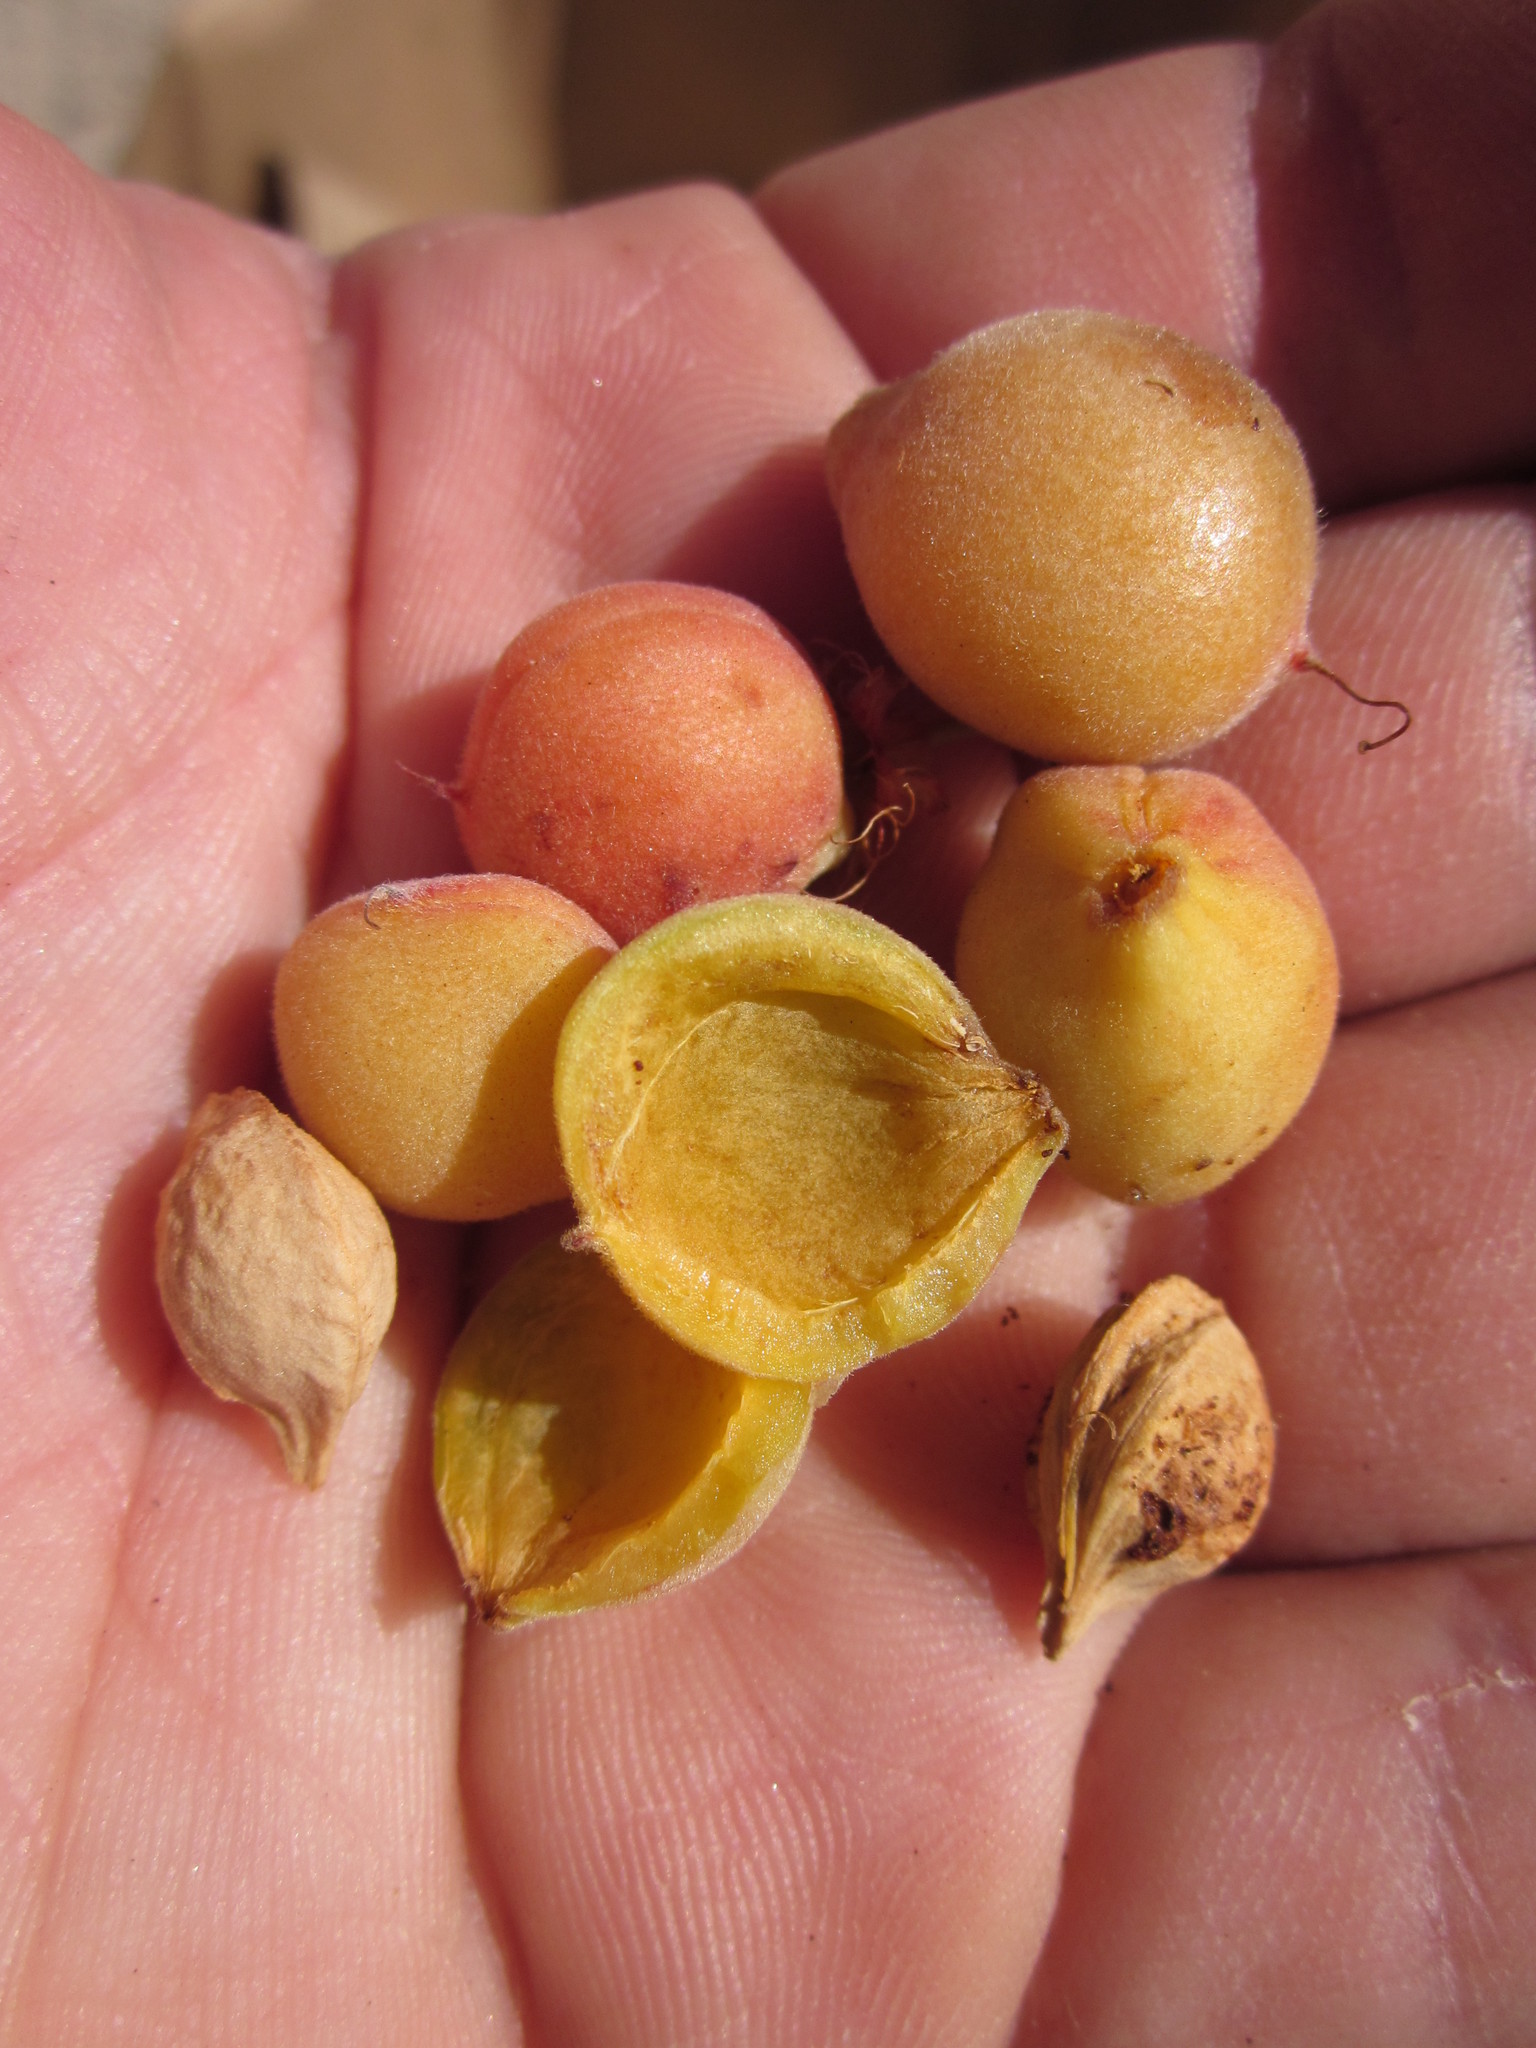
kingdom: Plantae
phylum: Tracheophyta
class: Magnoliopsida
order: Rosales
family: Rosaceae
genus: Prunus
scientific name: Prunus andersonii
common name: Desert peach
